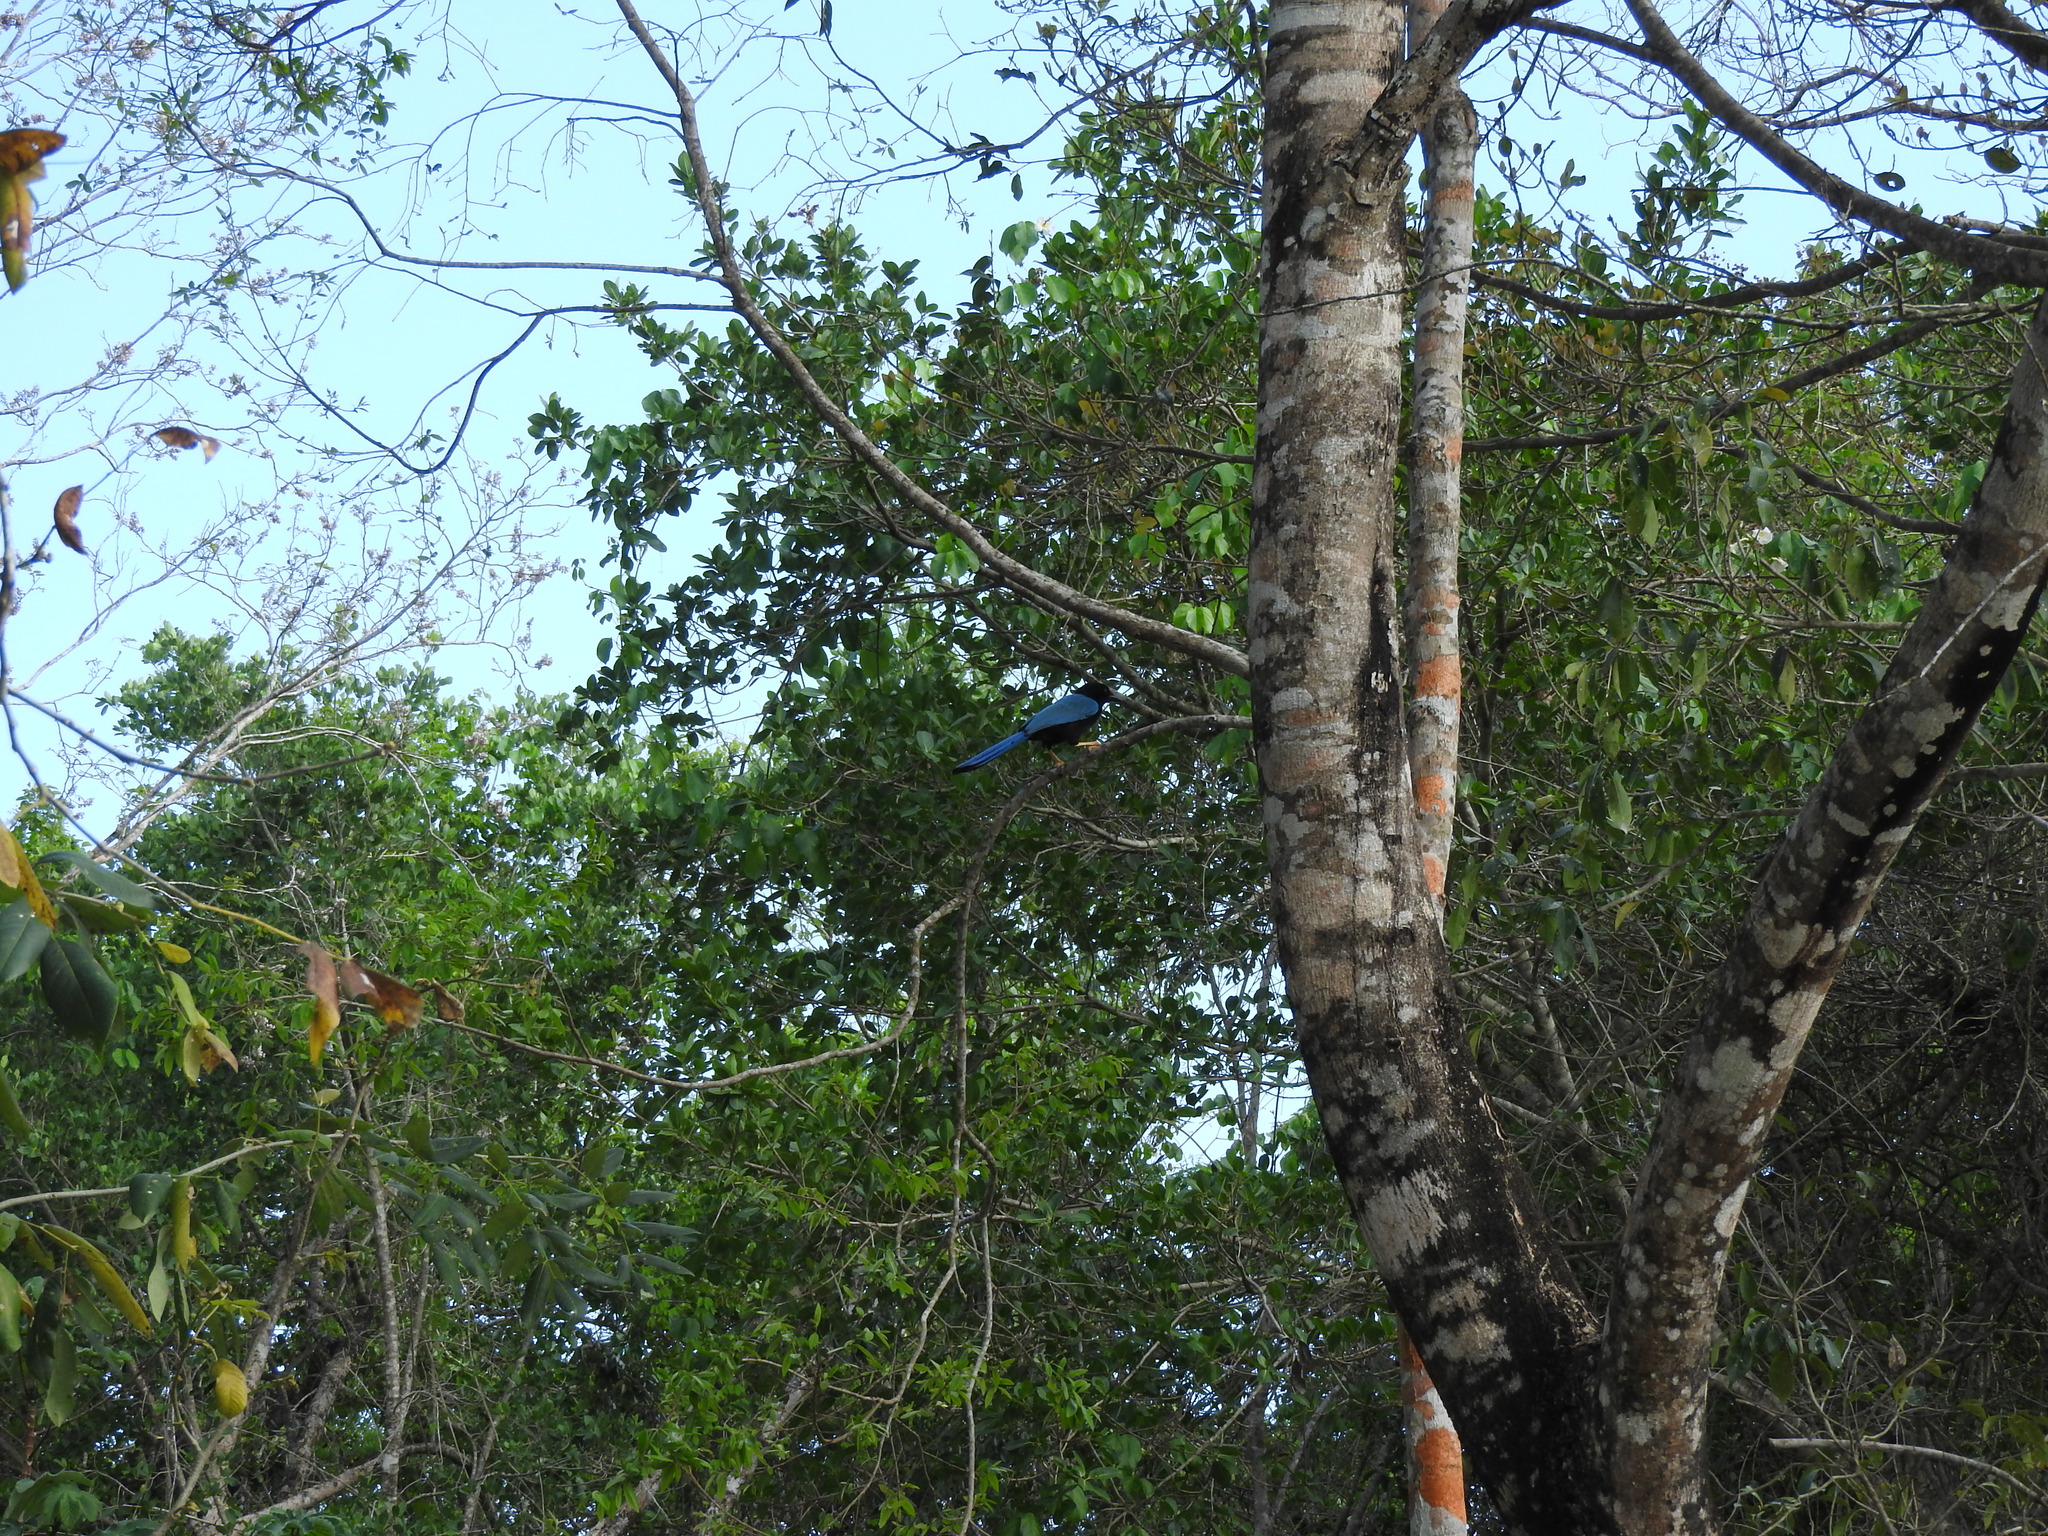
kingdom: Animalia
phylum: Chordata
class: Aves
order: Passeriformes
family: Corvidae
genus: Cyanocorax
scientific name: Cyanocorax yucatanicus
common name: Yucatan jay
